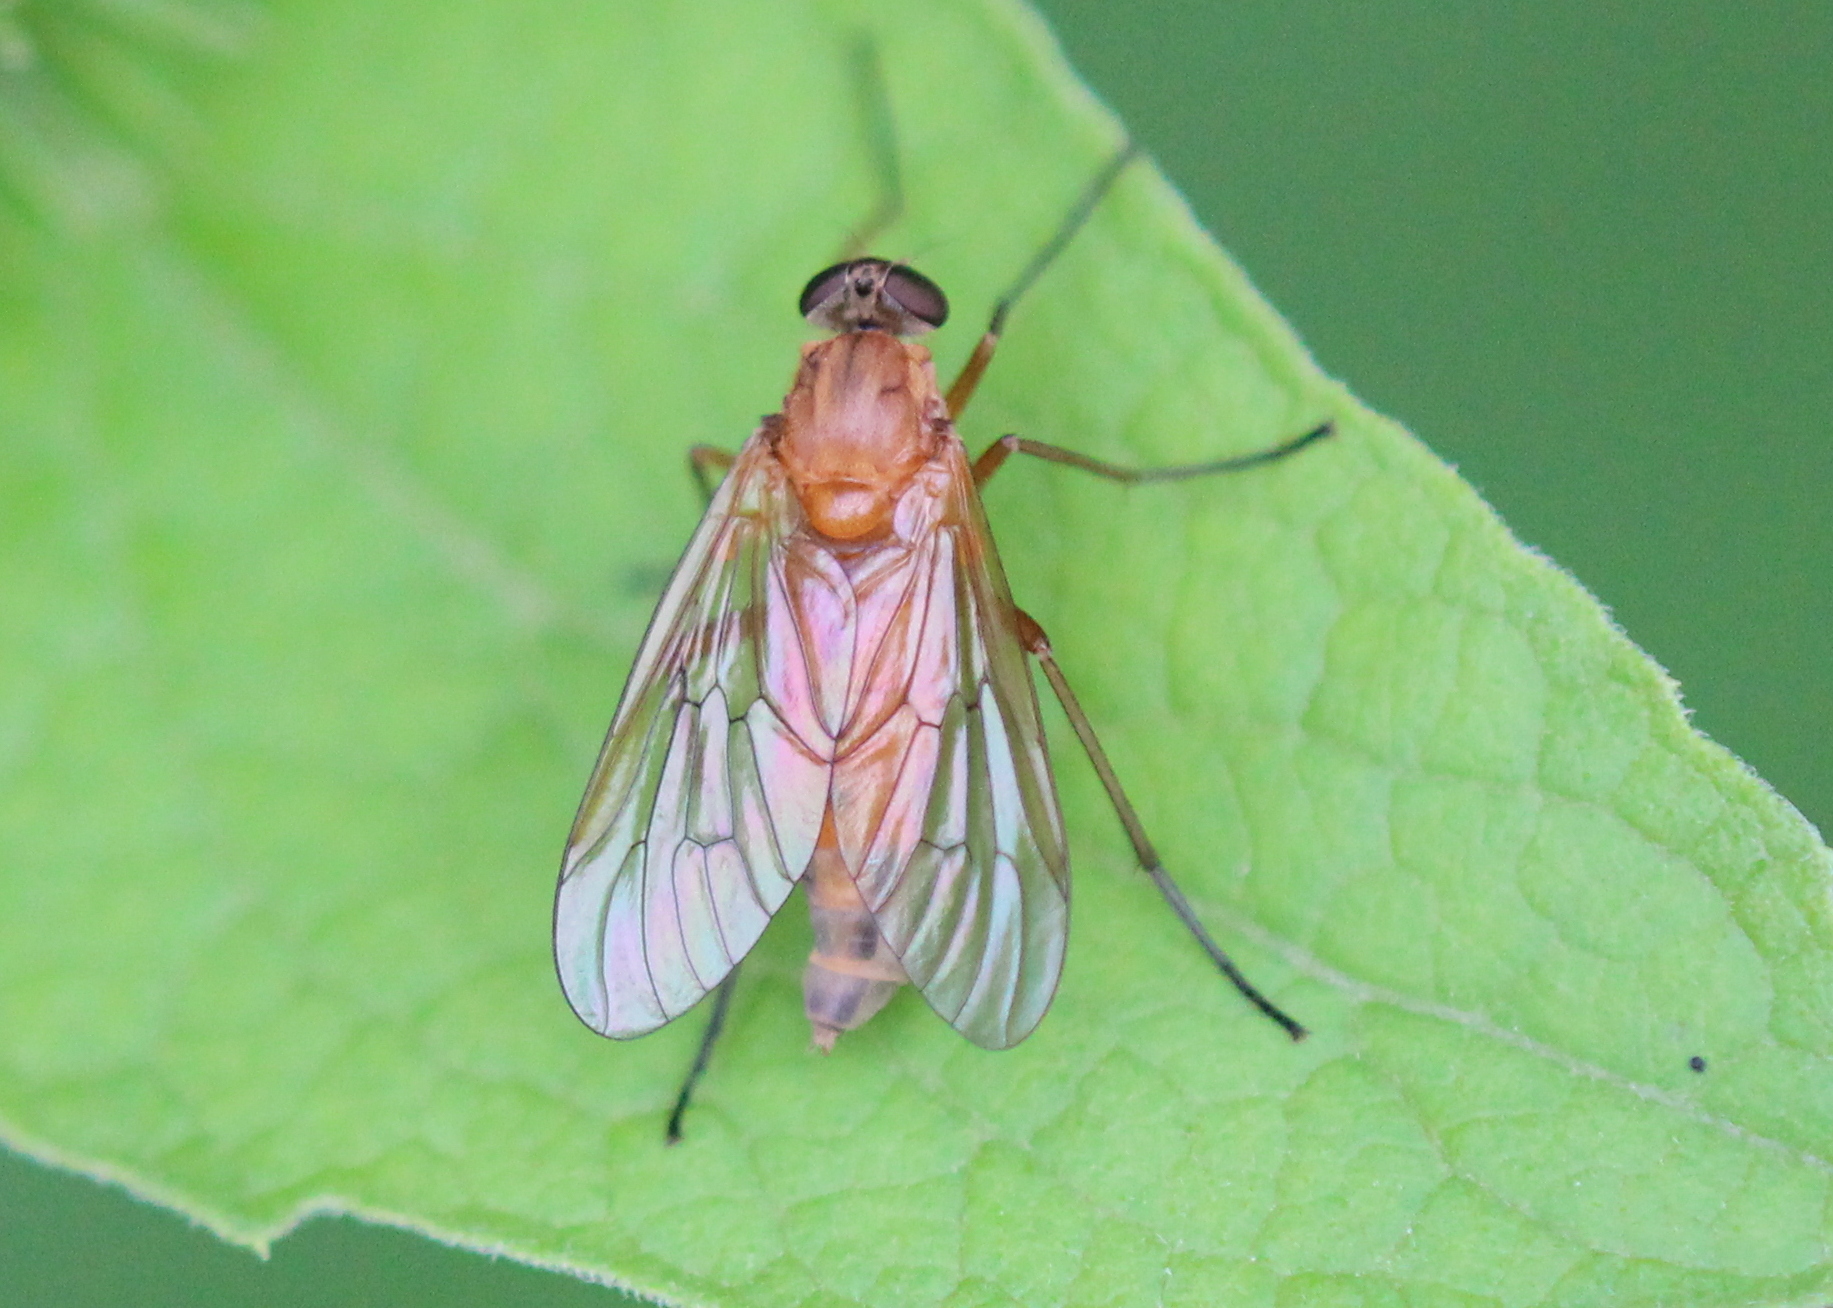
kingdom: Animalia
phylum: Arthropoda
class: Insecta
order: Diptera
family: Rhagionidae
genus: Rhagio
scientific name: Rhagio tringaria
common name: Marsh snipefly
